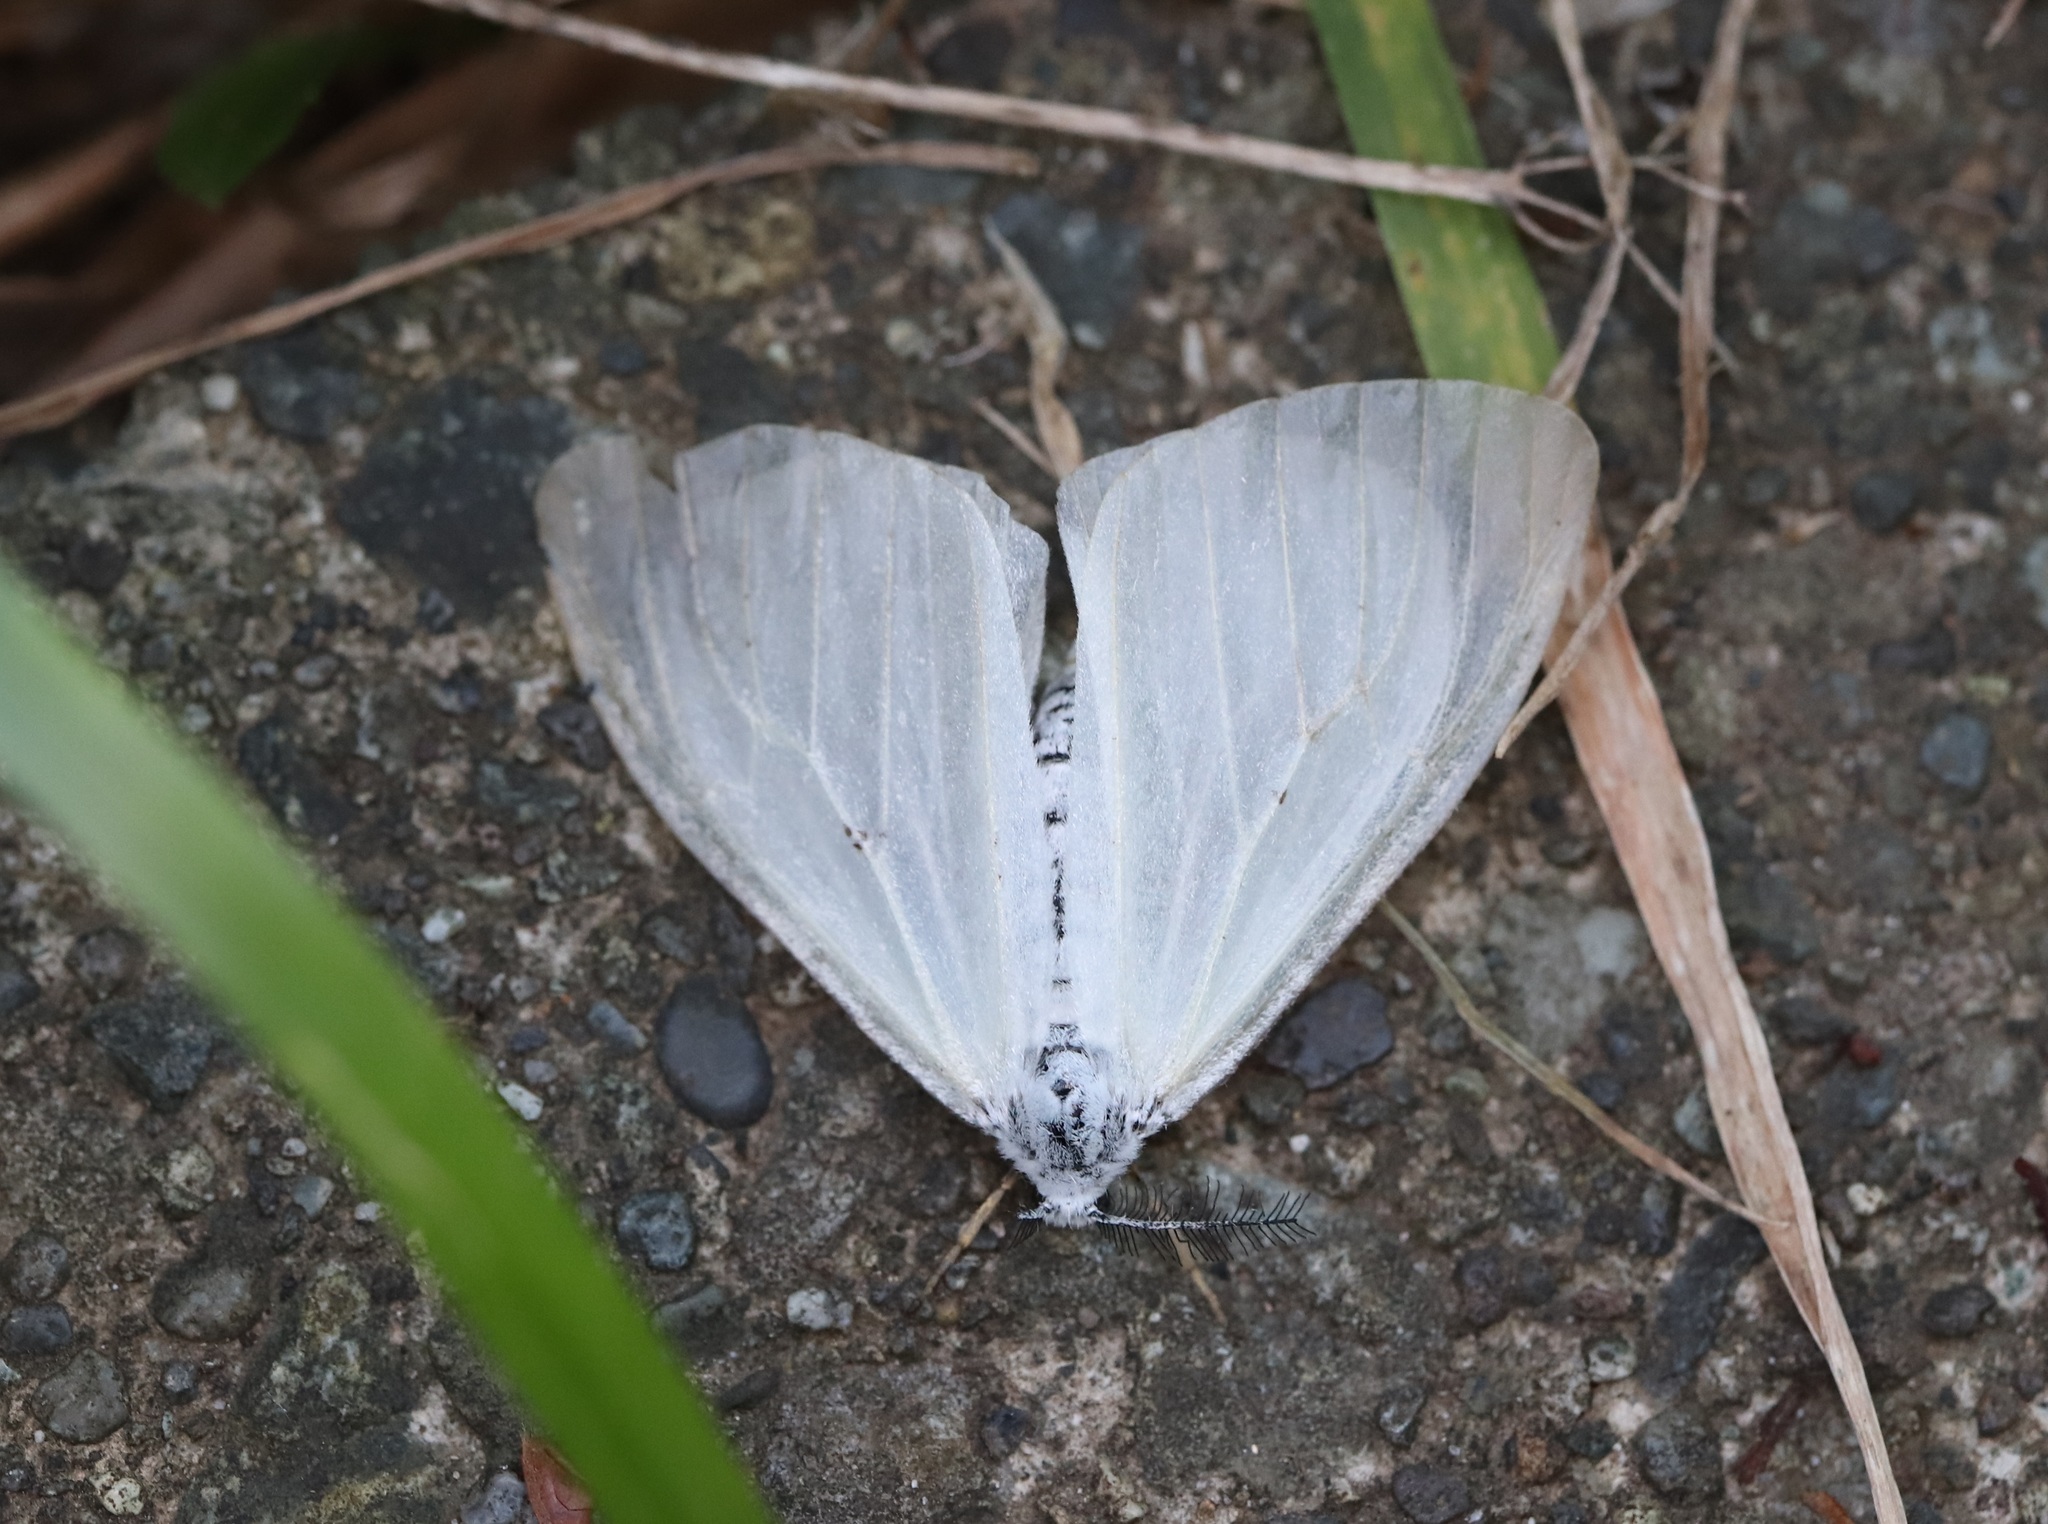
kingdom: Animalia
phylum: Arthropoda
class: Insecta
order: Lepidoptera
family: Erebidae
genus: Ivela
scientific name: Ivela auripes
